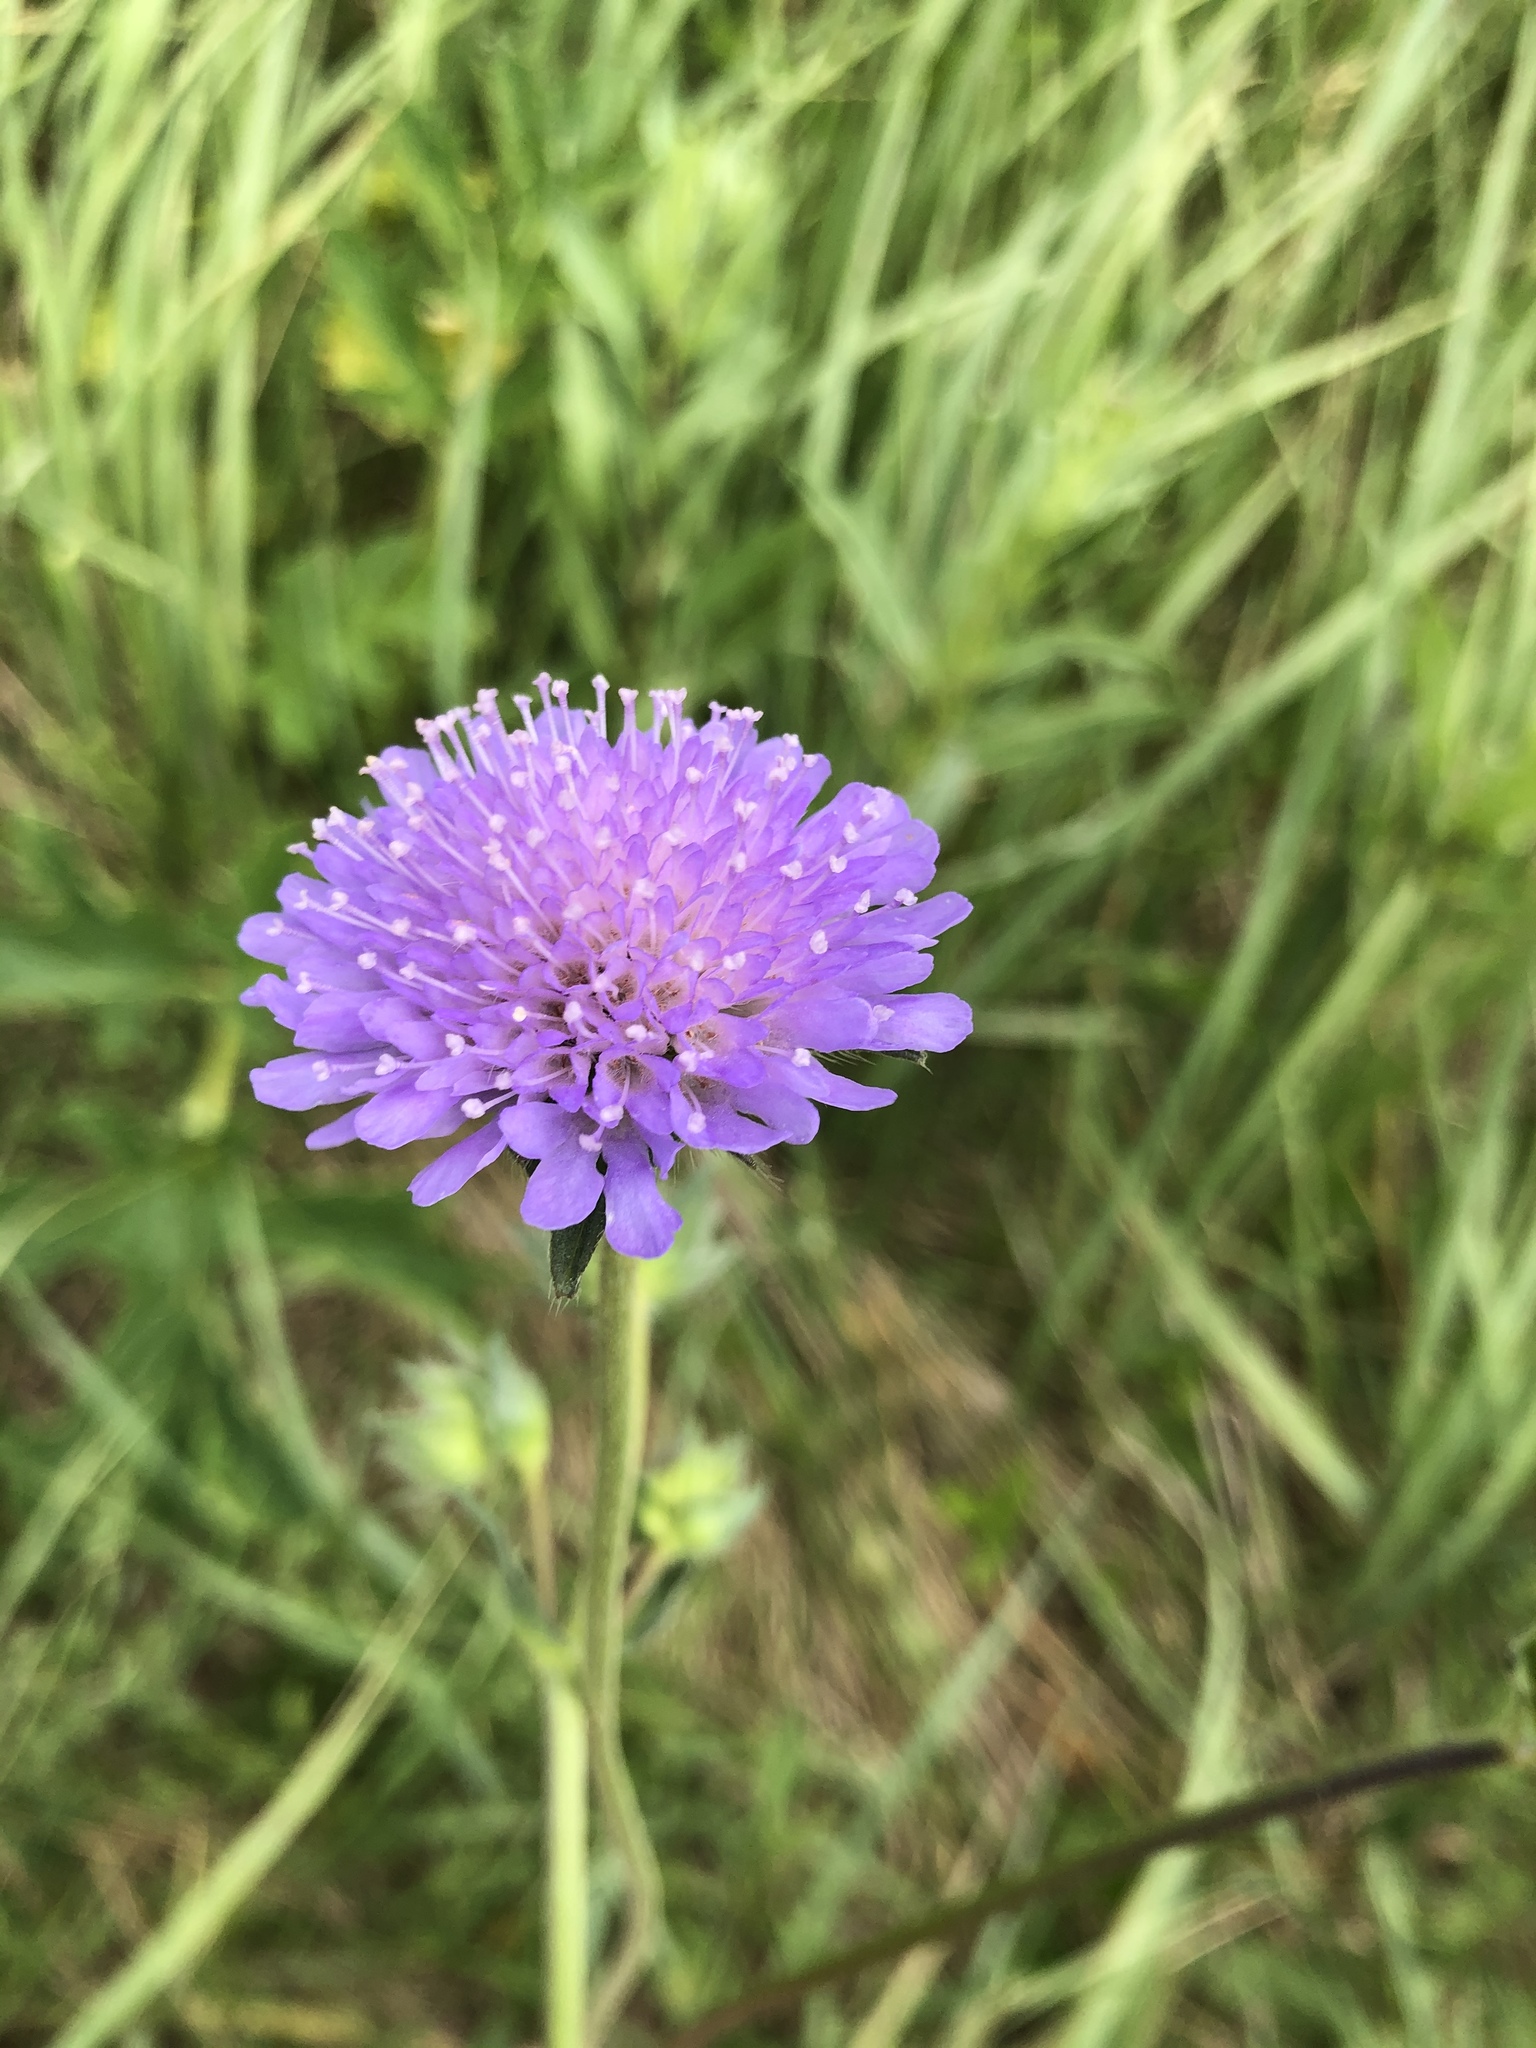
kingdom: Plantae
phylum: Tracheophyta
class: Magnoliopsida
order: Dipsacales
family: Caprifoliaceae
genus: Knautia
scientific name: Knautia arvensis
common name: Field scabiosa
